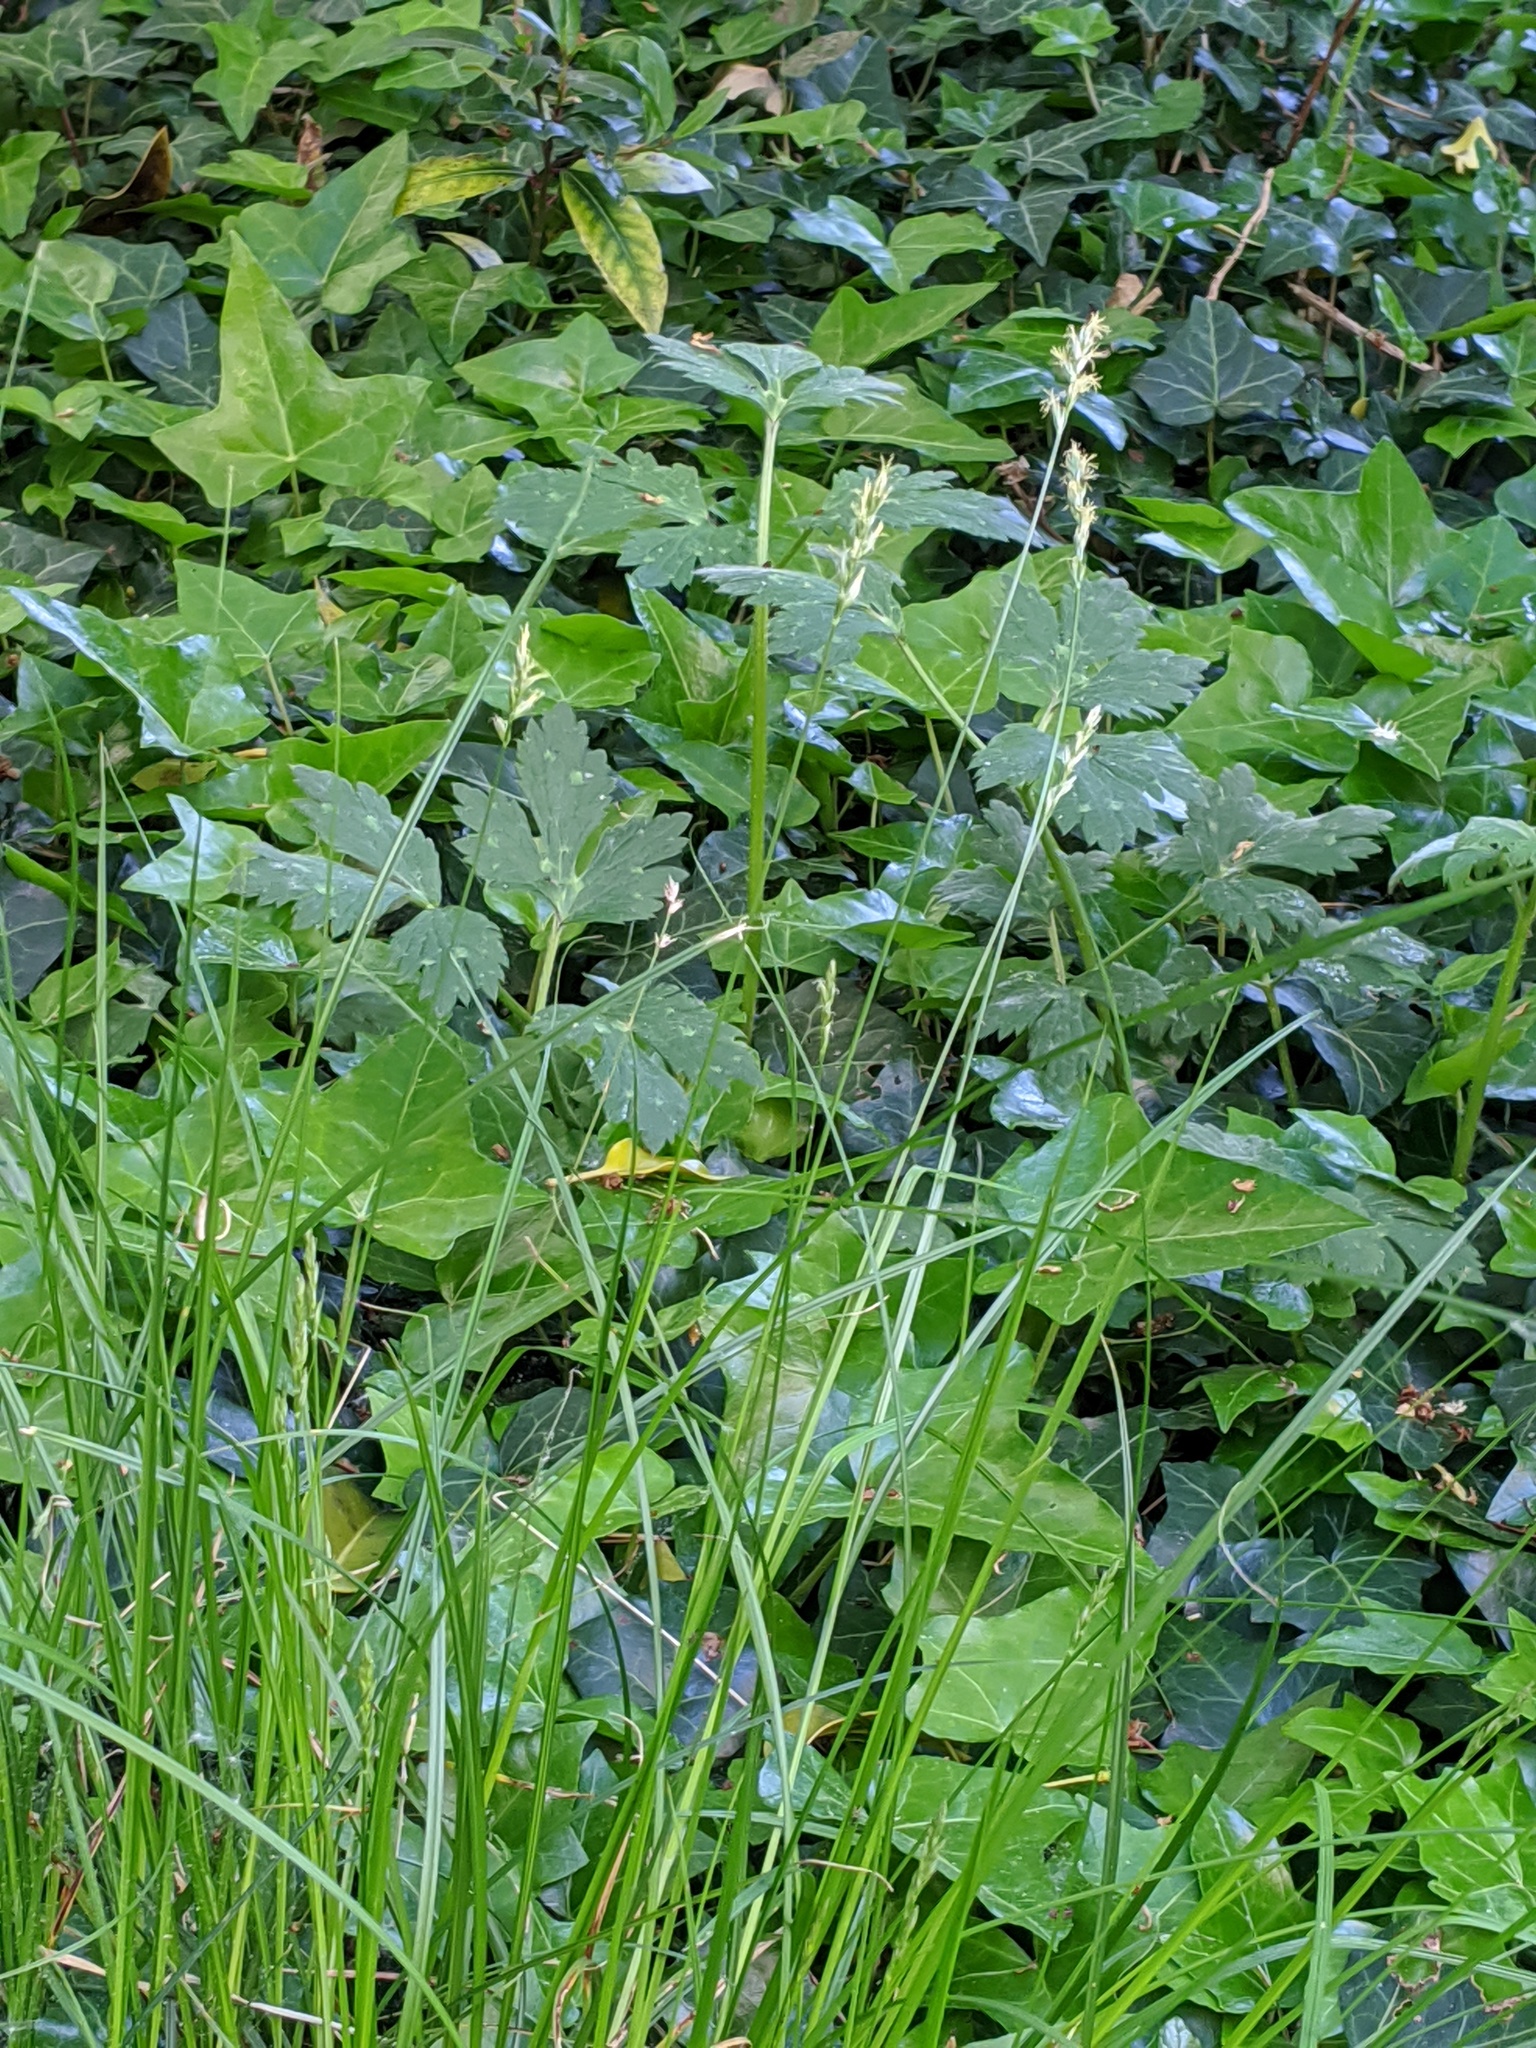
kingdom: Plantae
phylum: Tracheophyta
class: Liliopsida
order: Poales
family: Cyperaceae
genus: Carex
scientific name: Carex divulsa
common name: Grassland sedge
